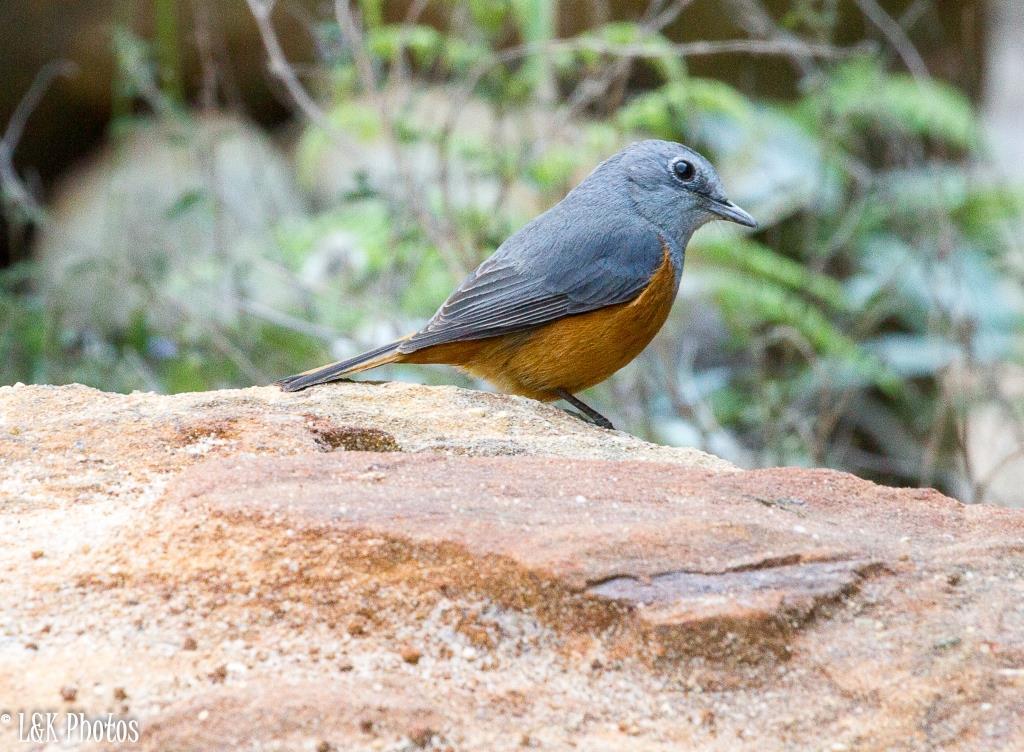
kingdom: Animalia
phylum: Chordata
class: Aves
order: Passeriformes
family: Muscicapidae
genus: Monticola
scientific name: Monticola sharpei
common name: Forest rock-thrush
